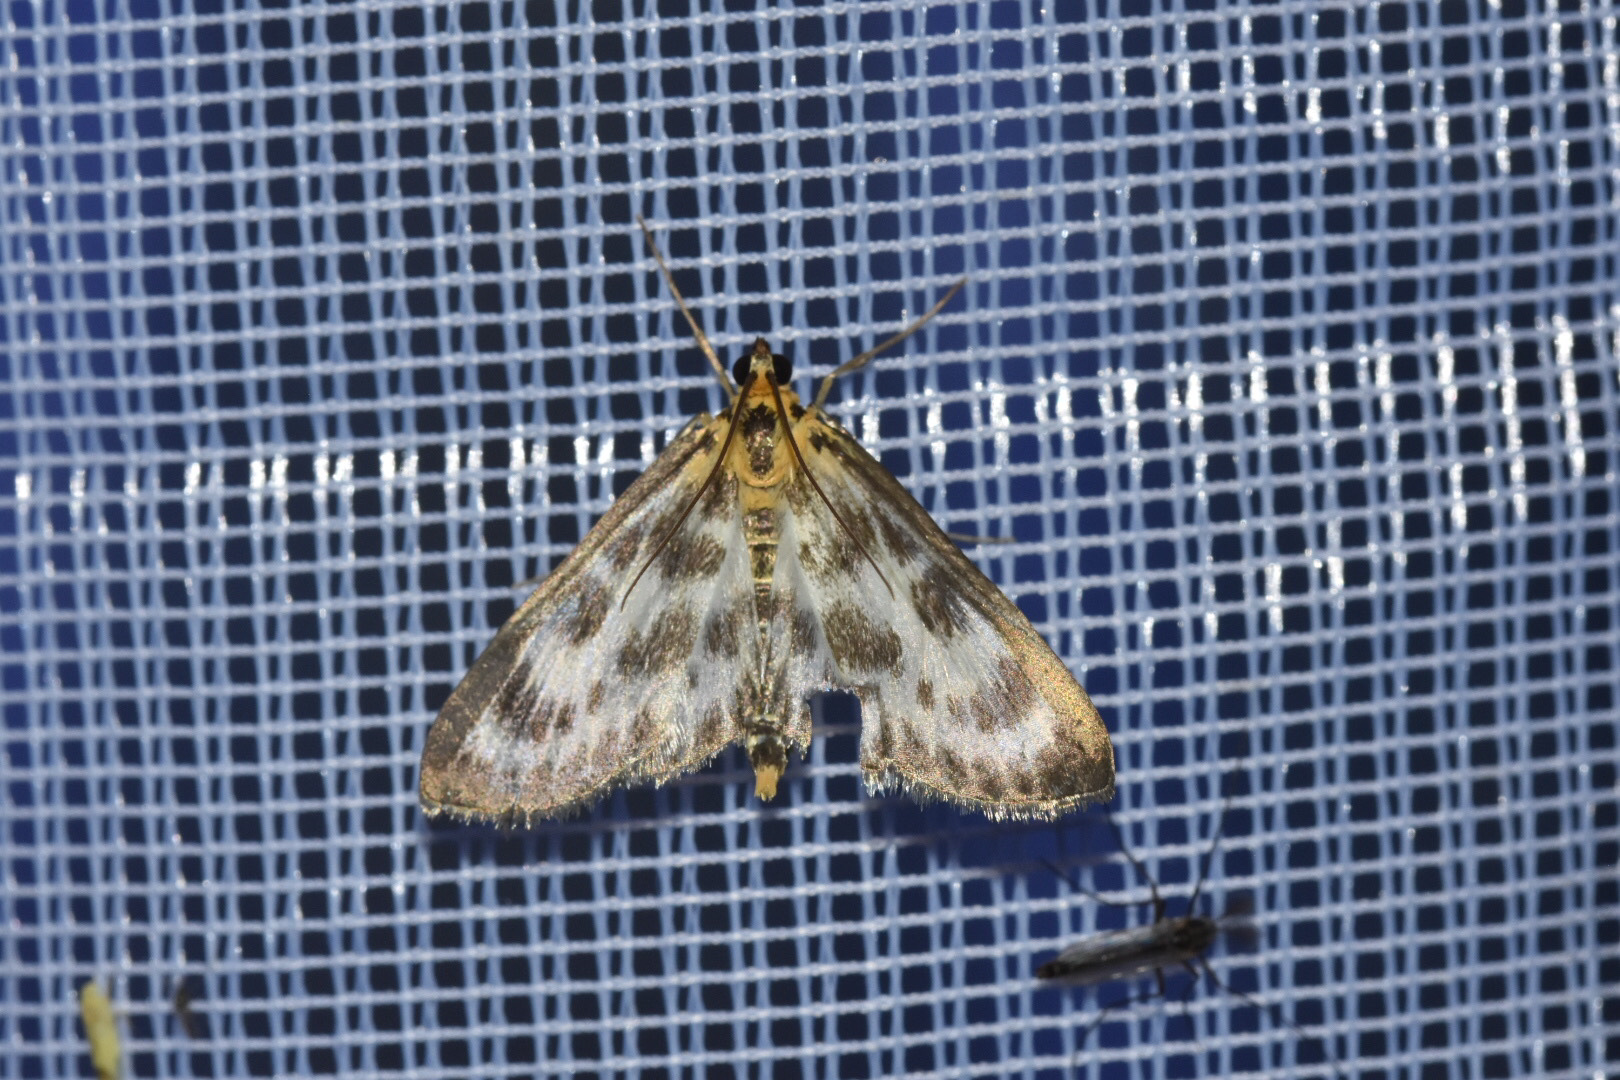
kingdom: Animalia
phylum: Arthropoda
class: Insecta
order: Lepidoptera
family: Crambidae
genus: Anania
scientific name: Anania hortulata
